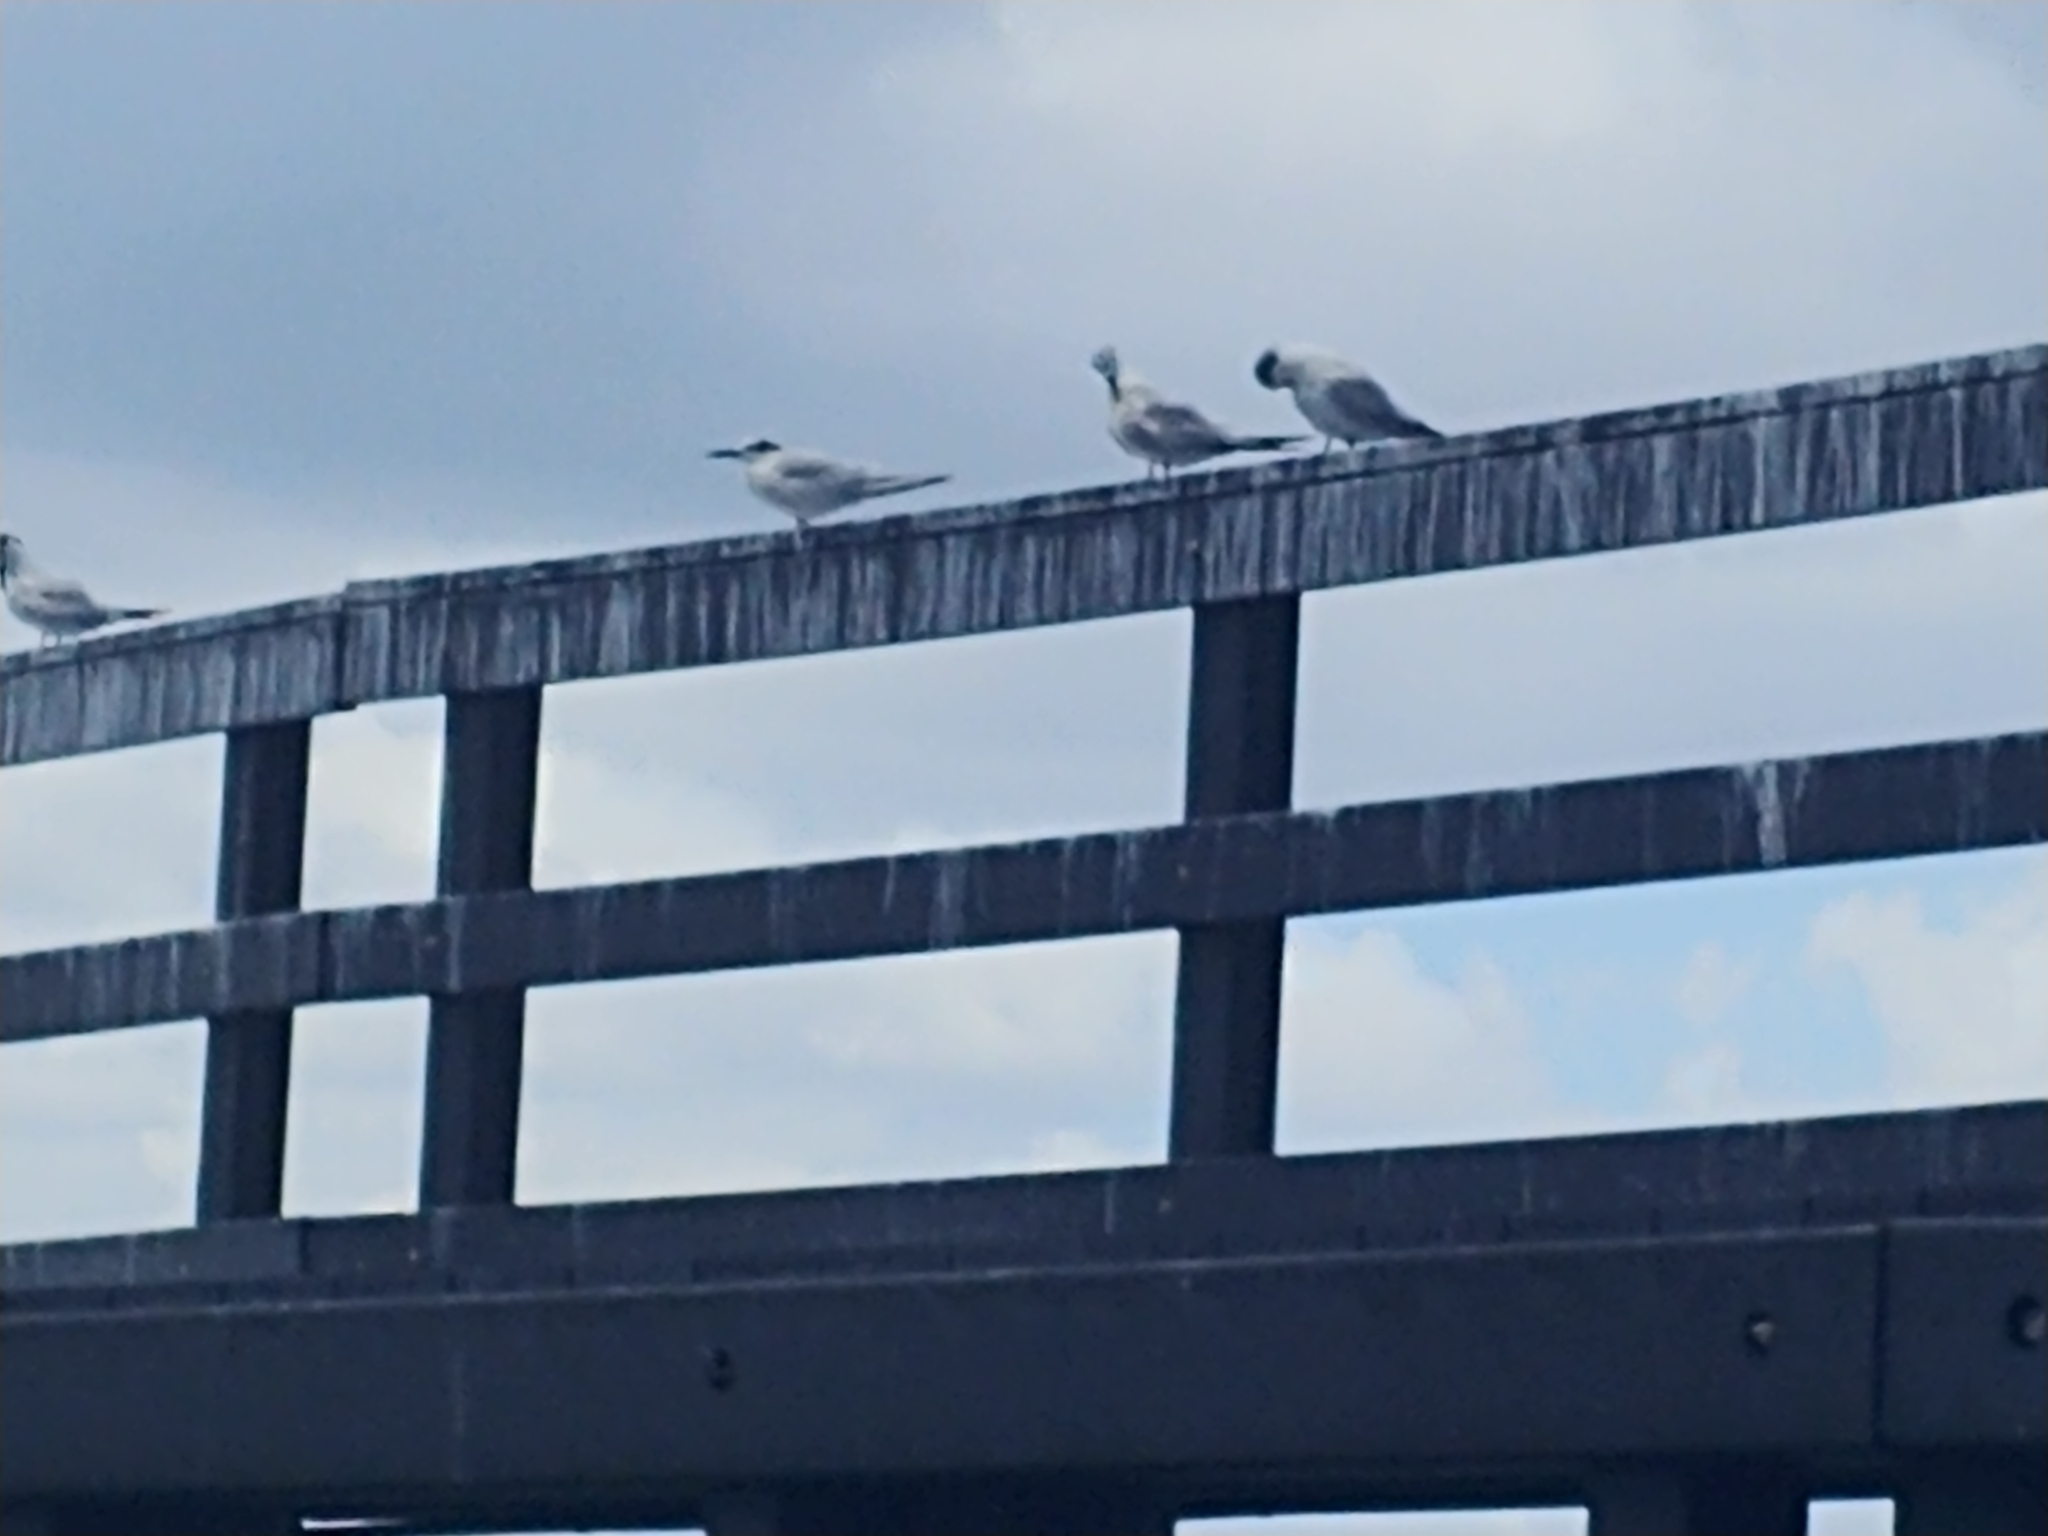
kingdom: Animalia
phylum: Chordata
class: Aves
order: Charadriiformes
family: Laridae
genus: Thalasseus
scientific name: Thalasseus sandvicensis
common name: Sandwich tern
